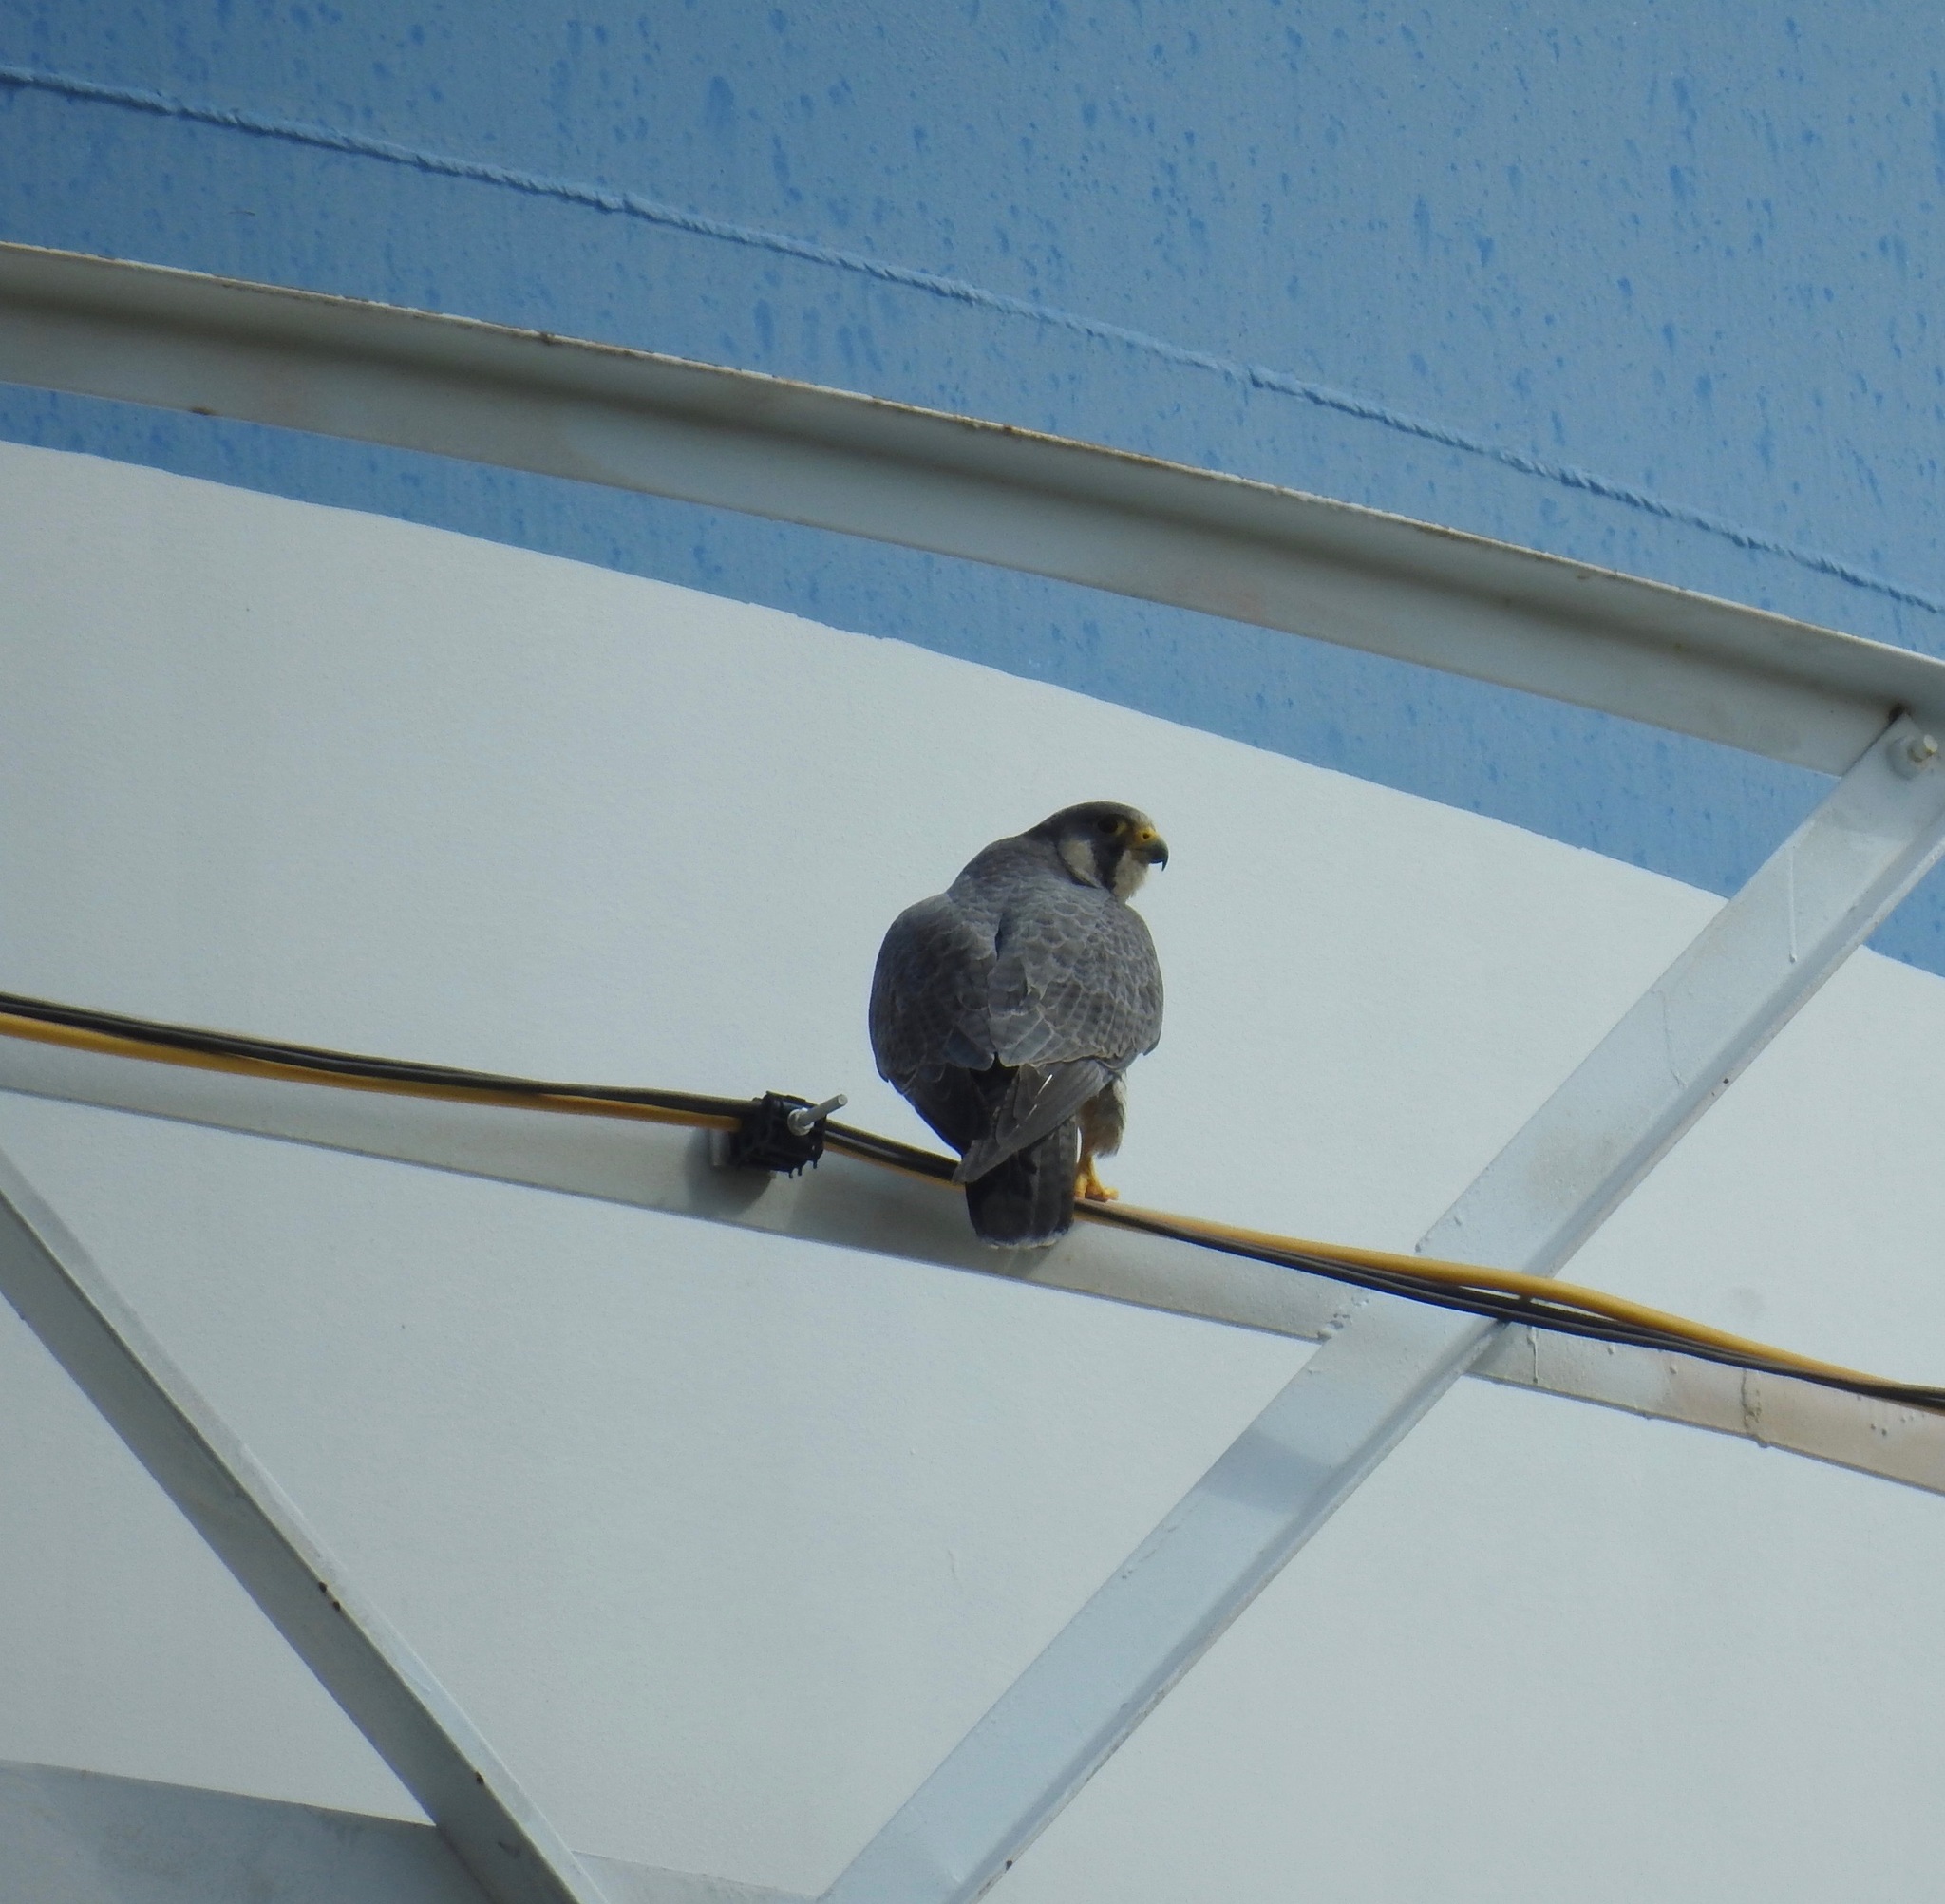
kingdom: Animalia
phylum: Chordata
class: Aves
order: Falconiformes
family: Falconidae
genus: Falco
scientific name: Falco peregrinus
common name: Peregrine falcon
